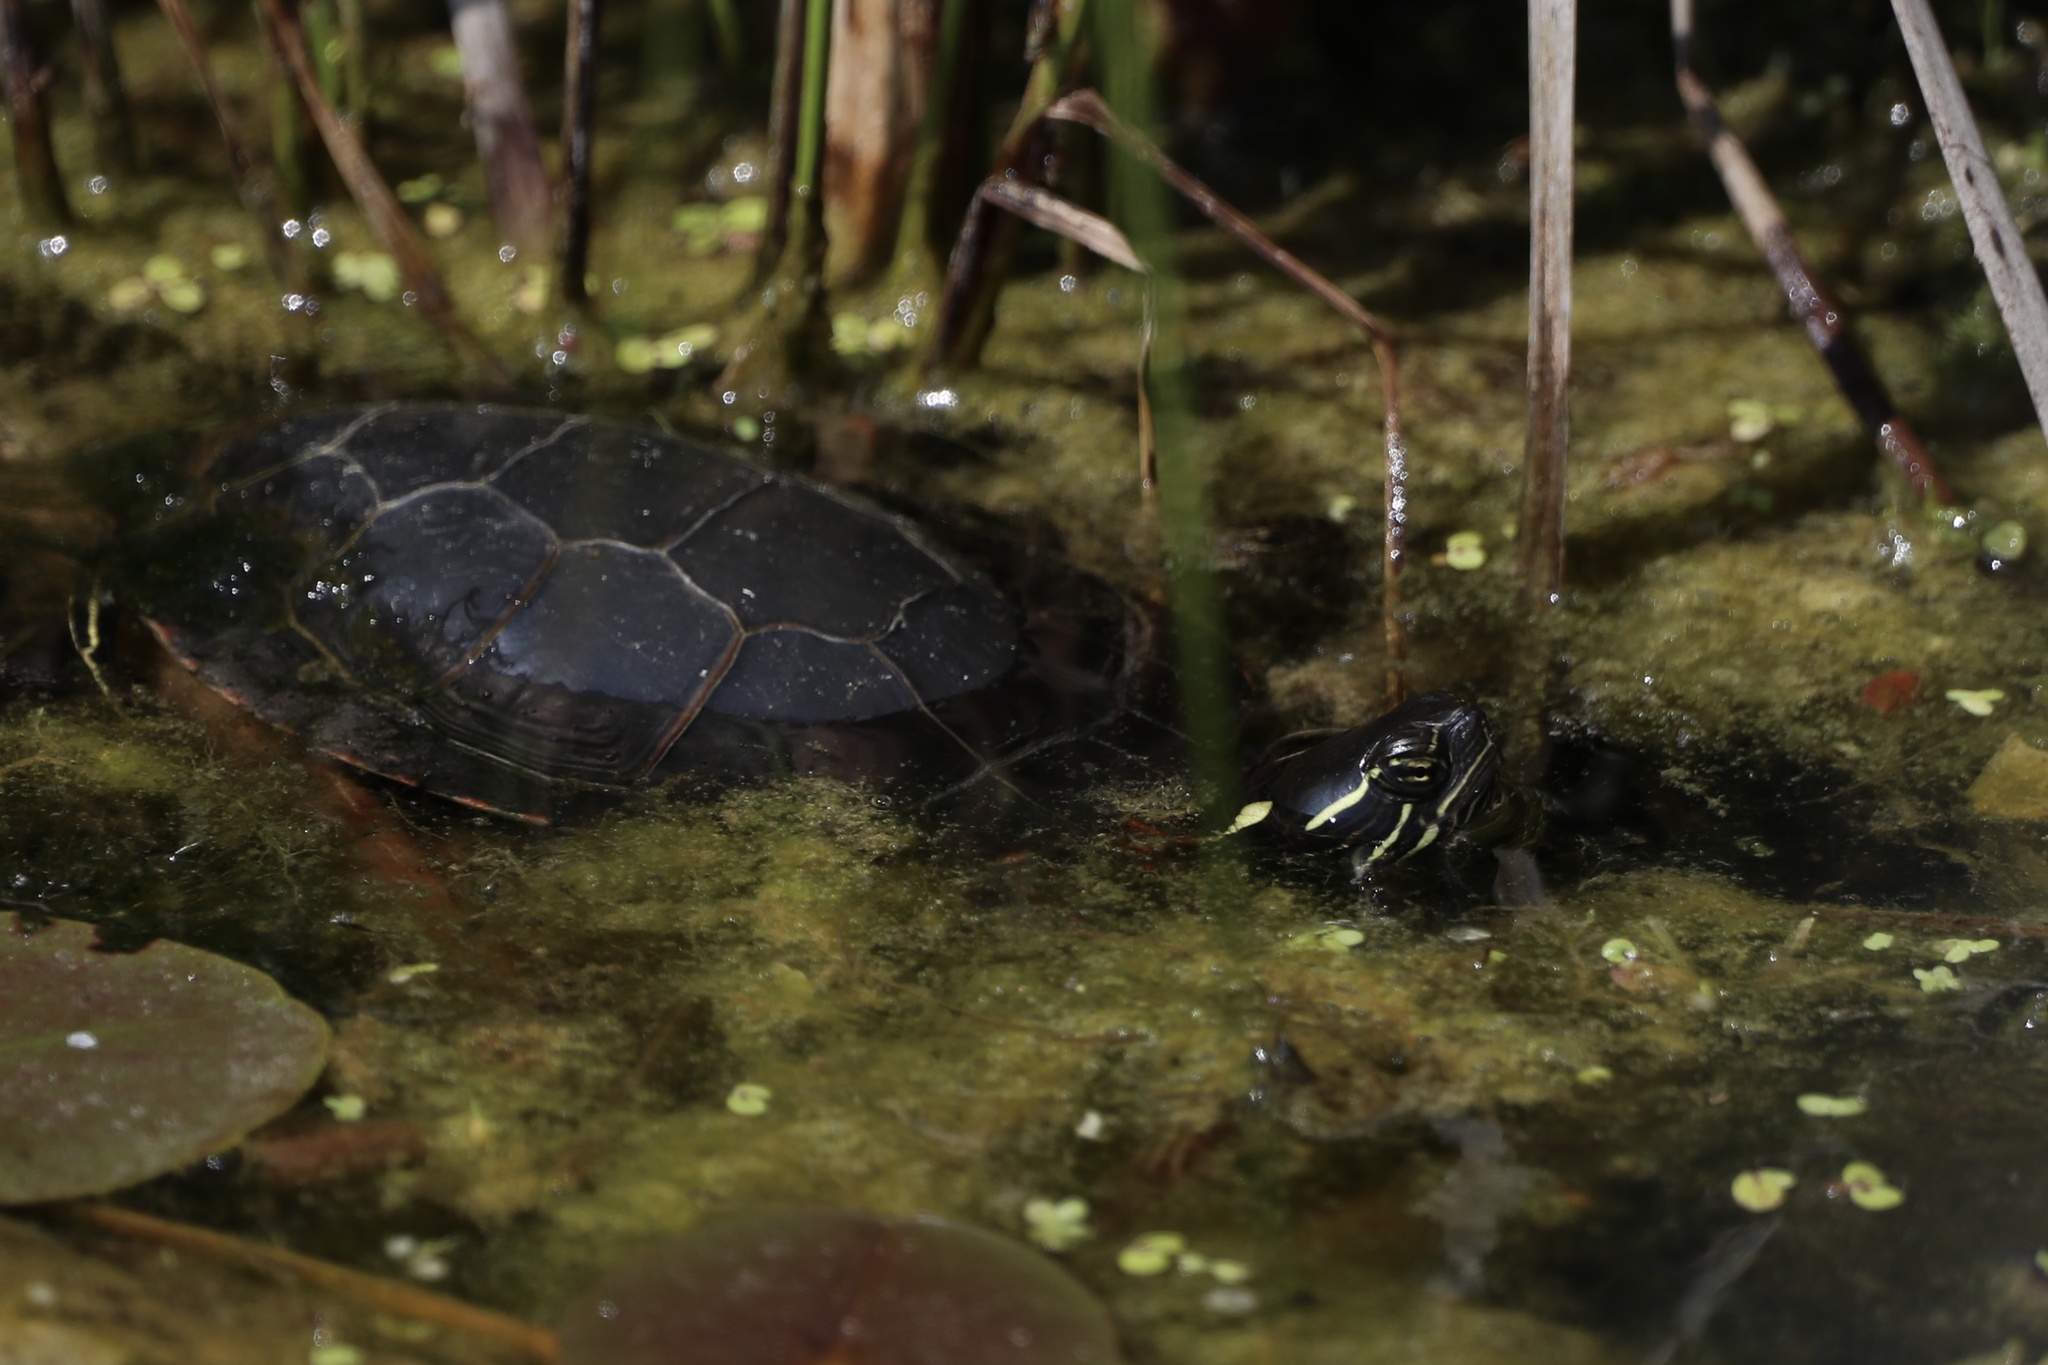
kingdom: Animalia
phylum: Chordata
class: Testudines
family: Emydidae
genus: Chrysemys
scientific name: Chrysemys picta
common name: Painted turtle
